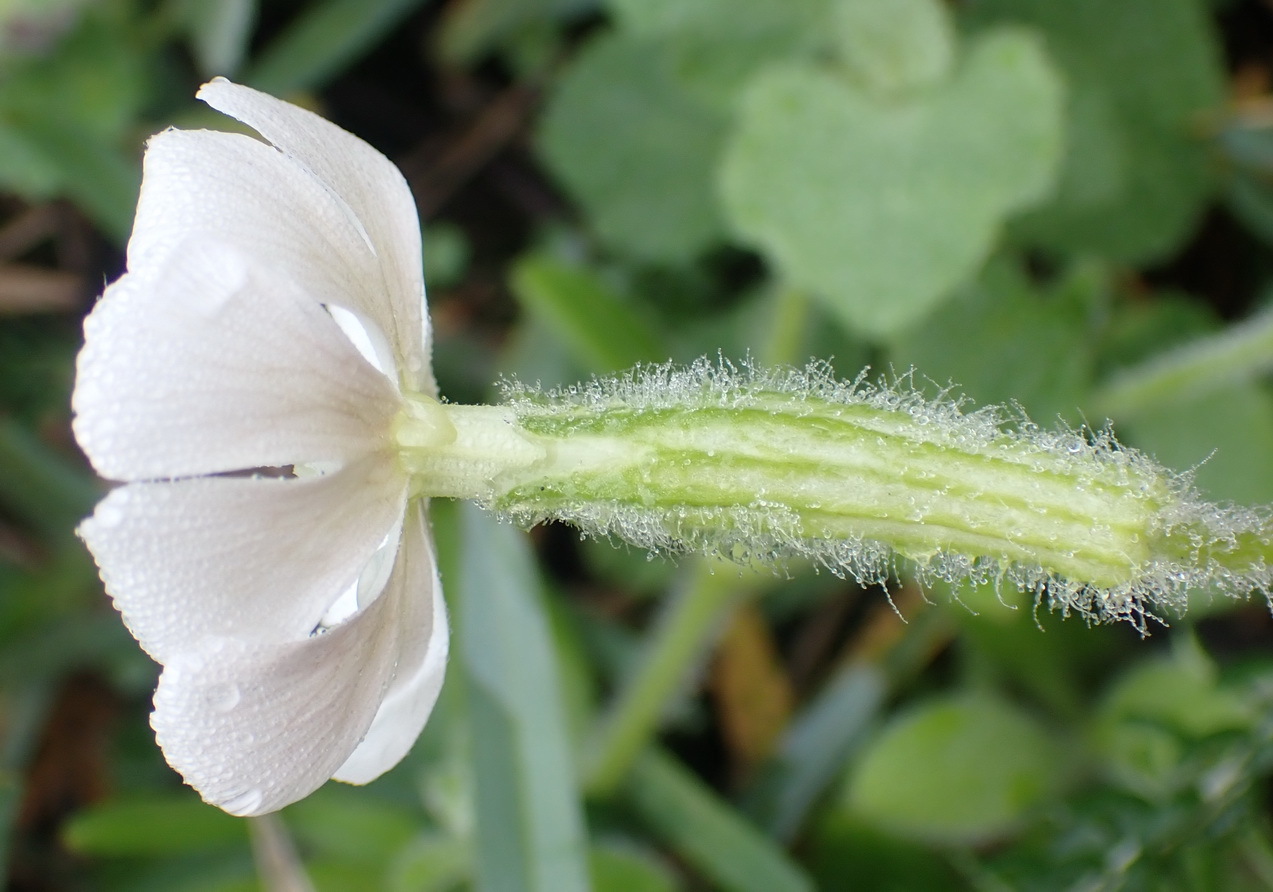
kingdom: Plantae
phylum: Tracheophyta
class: Magnoliopsida
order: Caryophyllales
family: Caryophyllaceae
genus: Silene
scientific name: Silene undulata
